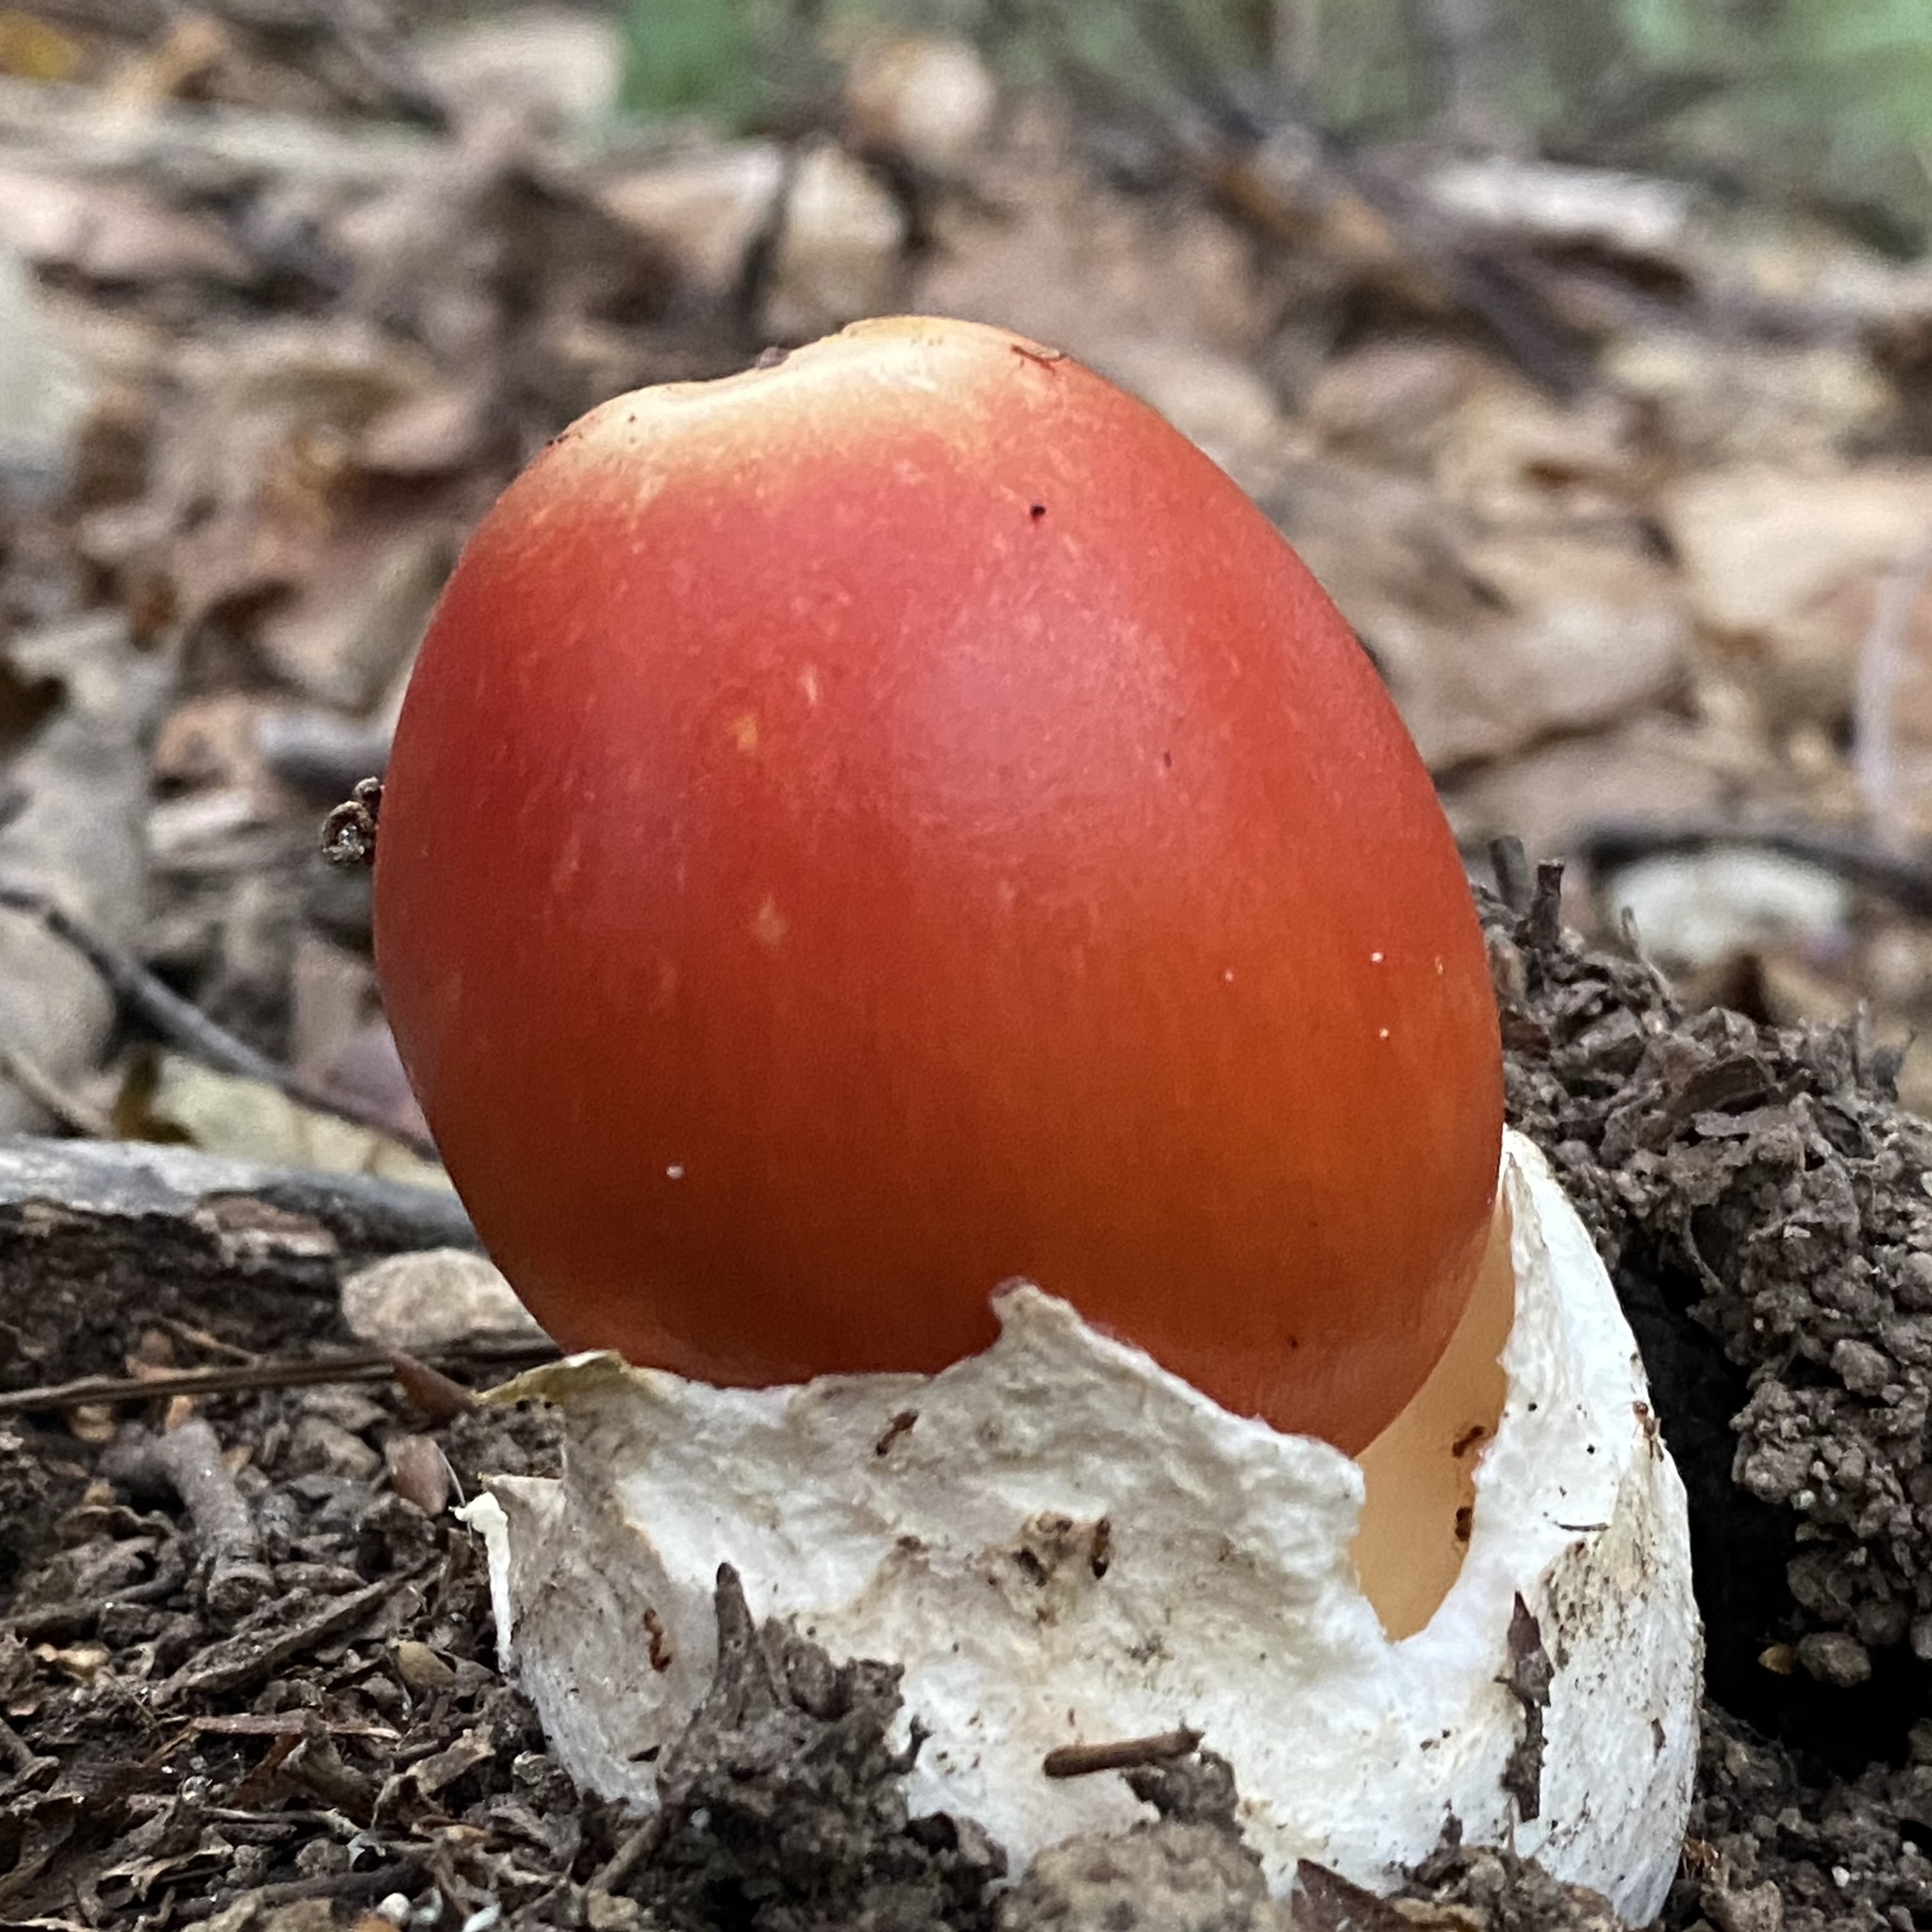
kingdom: Fungi
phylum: Basidiomycota
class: Agaricomycetes
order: Agaricales
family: Amanitaceae
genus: Amanita
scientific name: Amanita caesareoides
